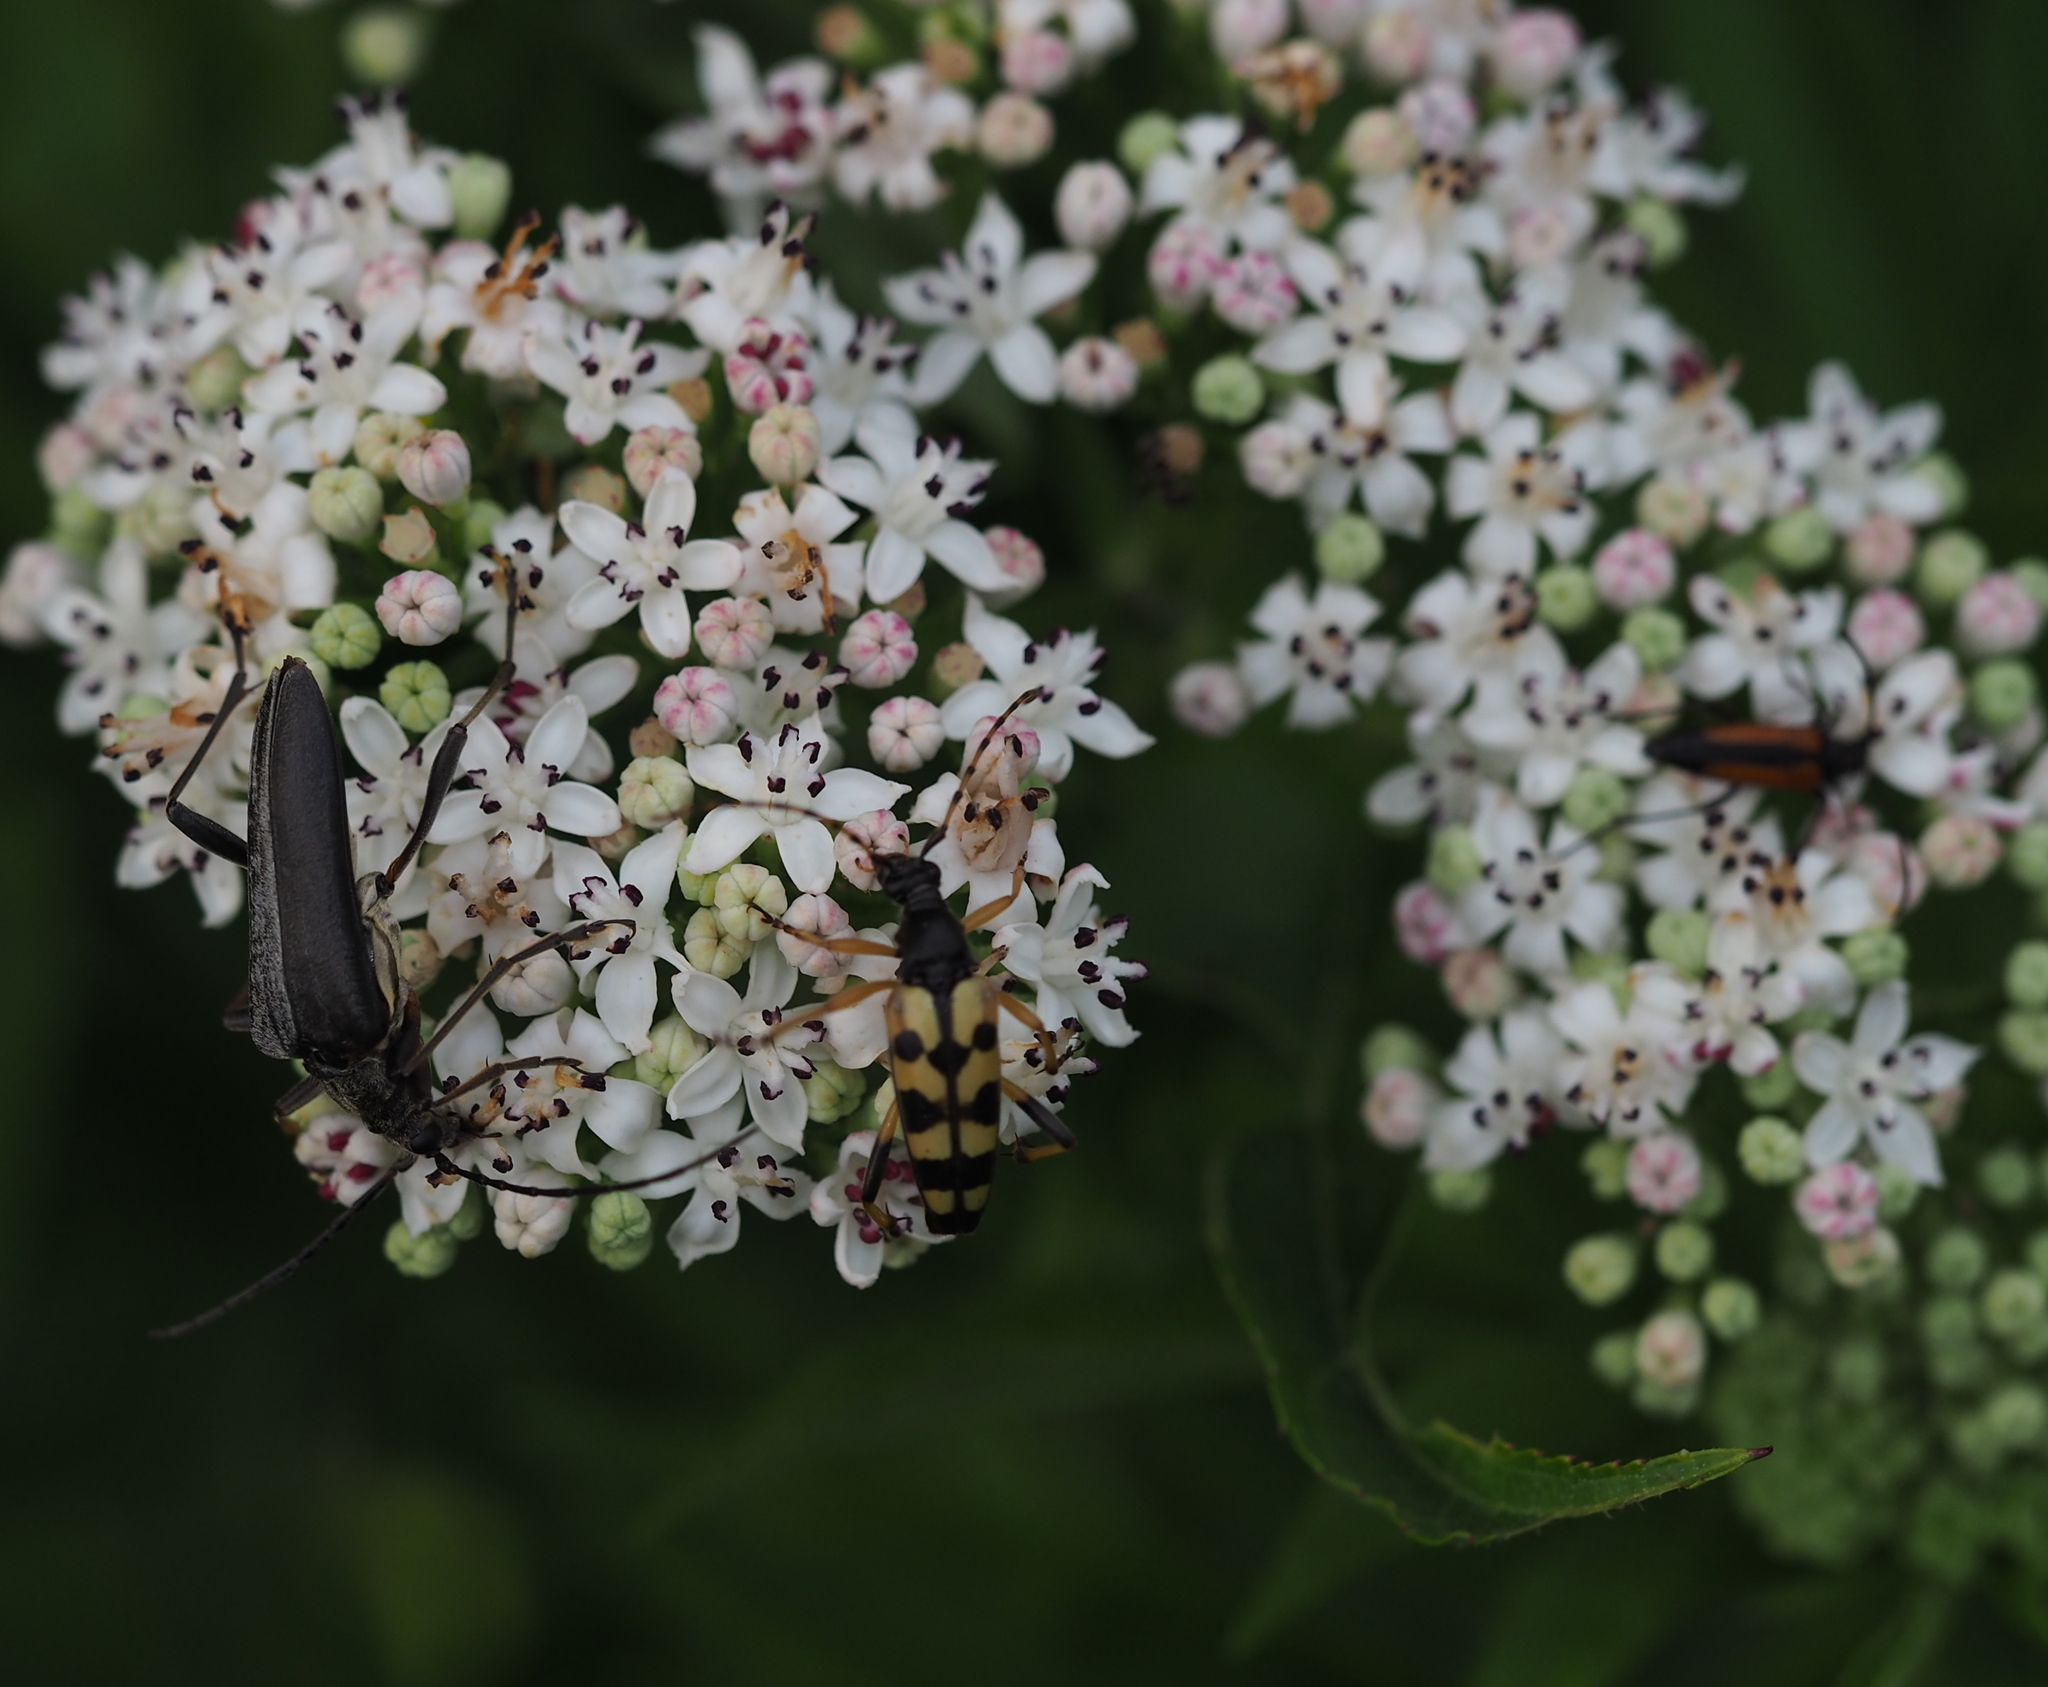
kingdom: Animalia
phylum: Arthropoda
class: Insecta
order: Coleoptera
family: Cerambycidae
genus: Stenocorus
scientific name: Stenocorus meridianus
